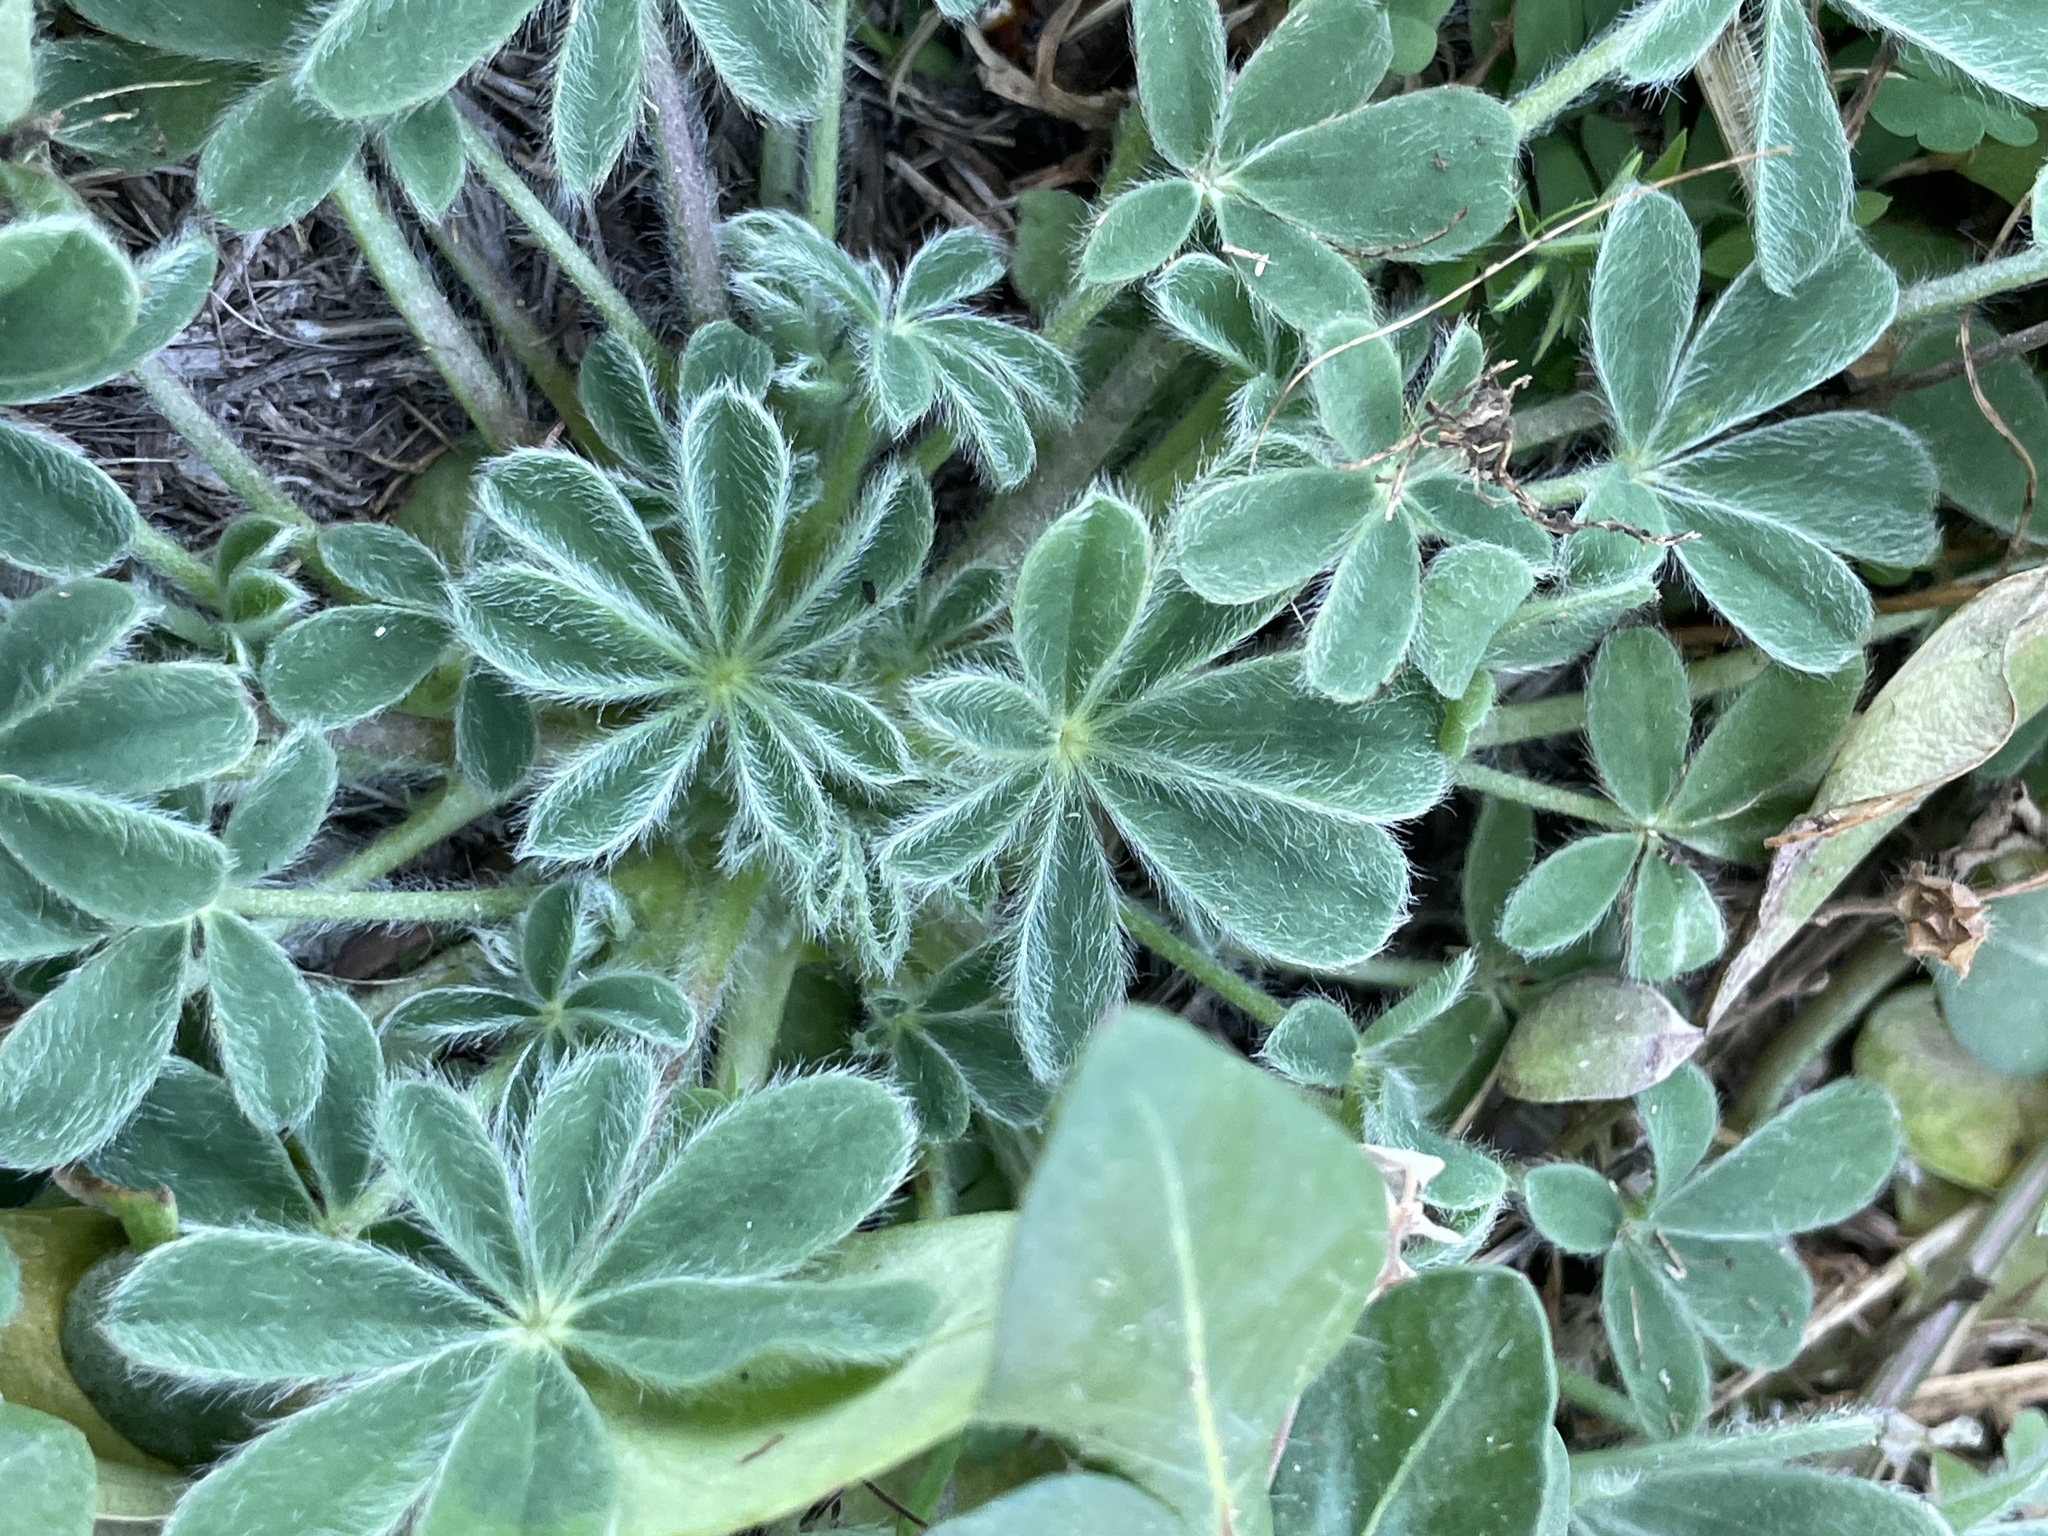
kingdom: Plantae
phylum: Tracheophyta
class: Magnoliopsida
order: Fabales
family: Fabaceae
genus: Lupinus
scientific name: Lupinus subcarnosus
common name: Texas bluebonnet
